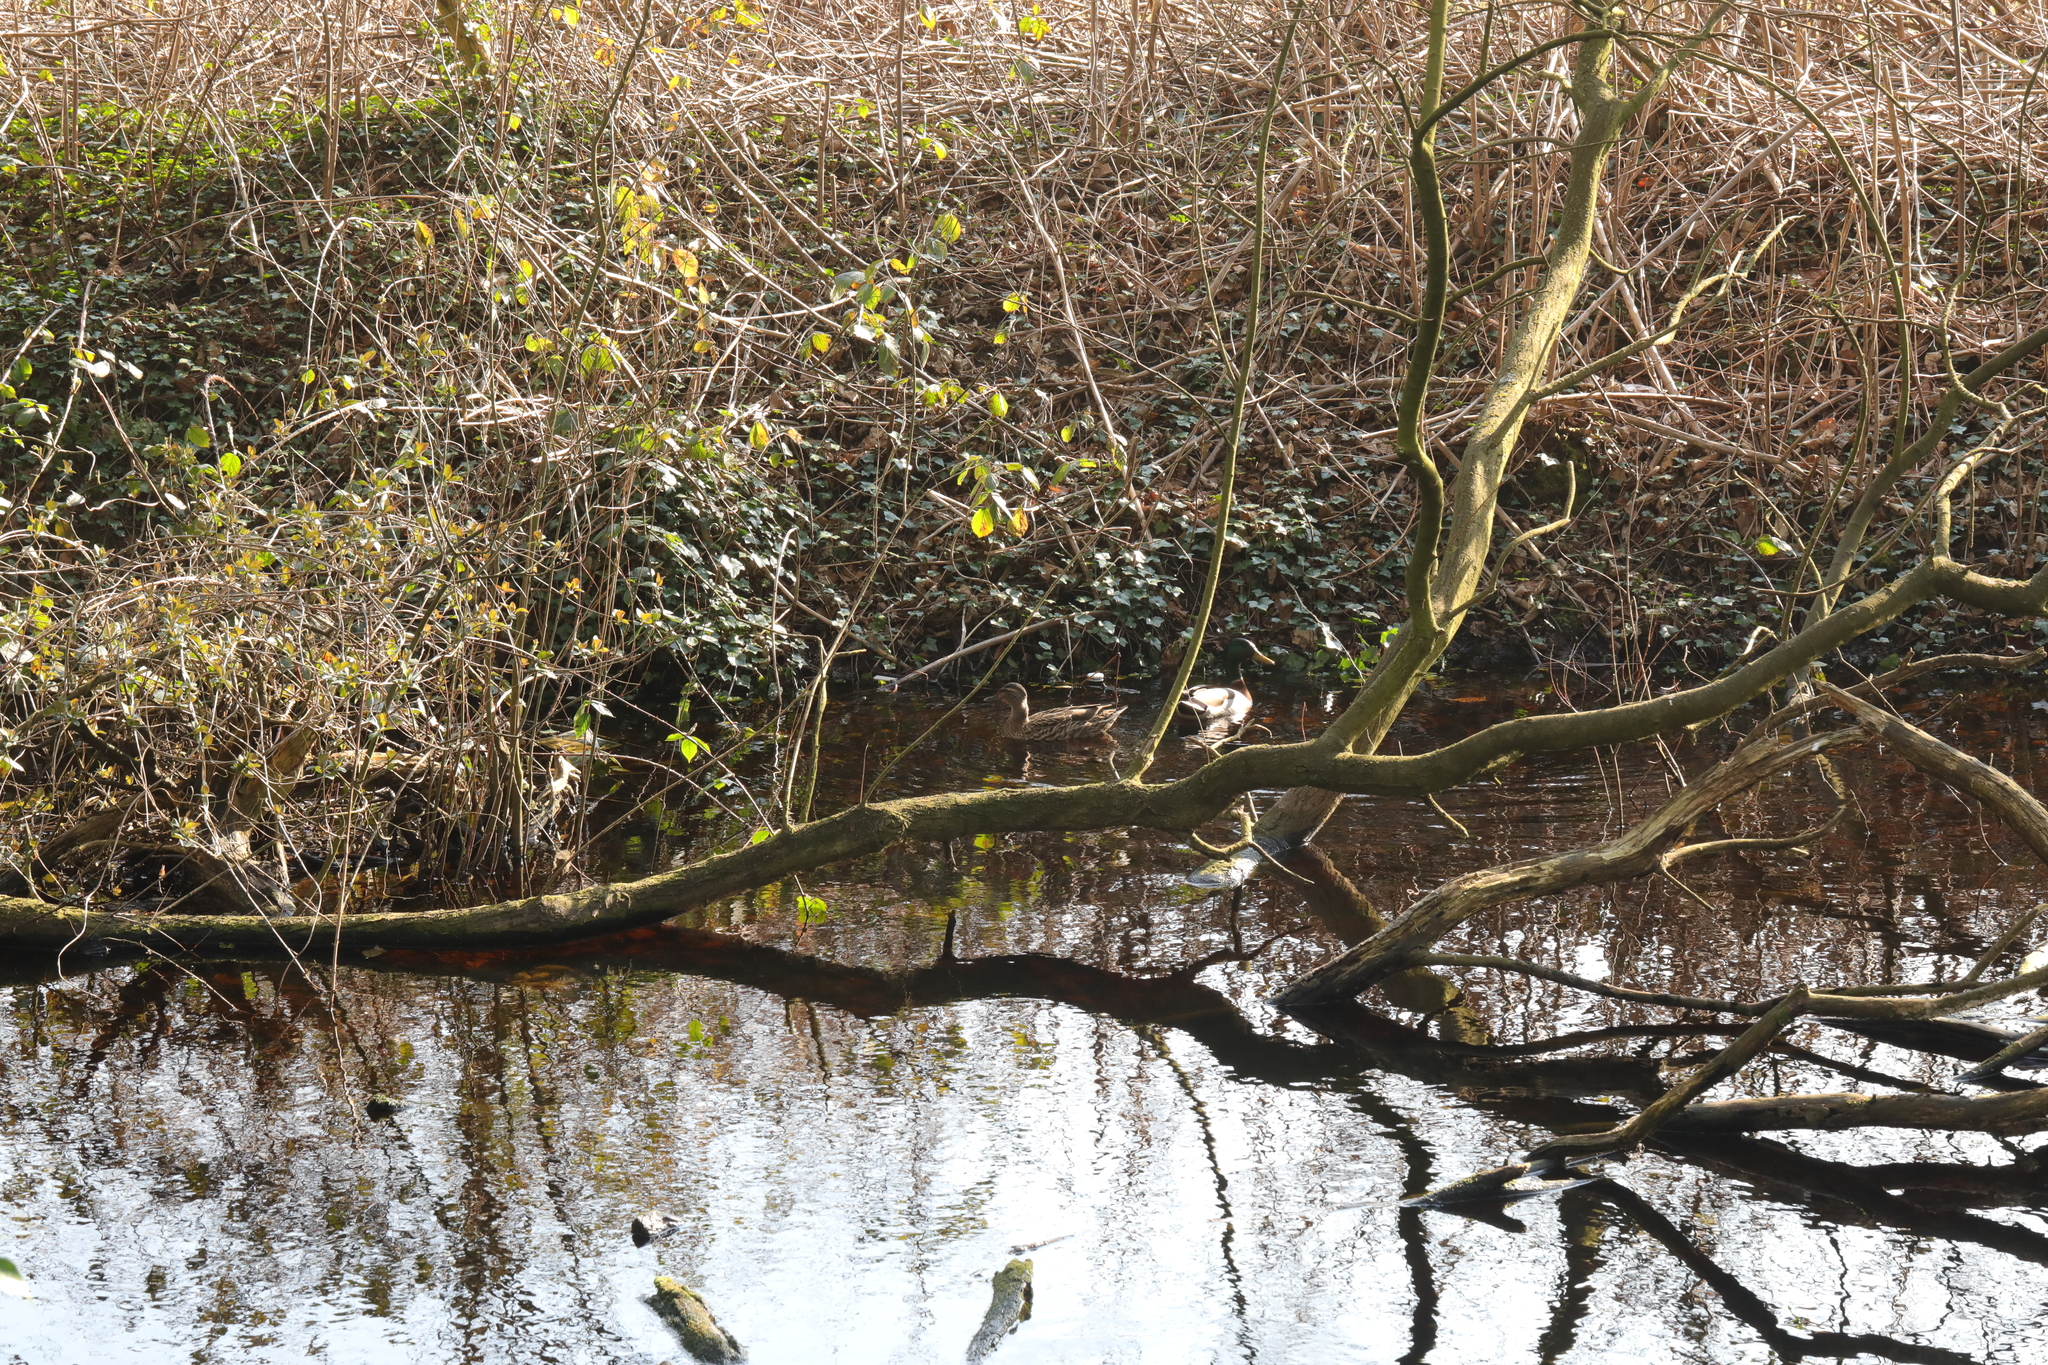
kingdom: Animalia
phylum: Chordata
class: Aves
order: Anseriformes
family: Anatidae
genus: Anas
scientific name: Anas platyrhynchos
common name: Mallard
